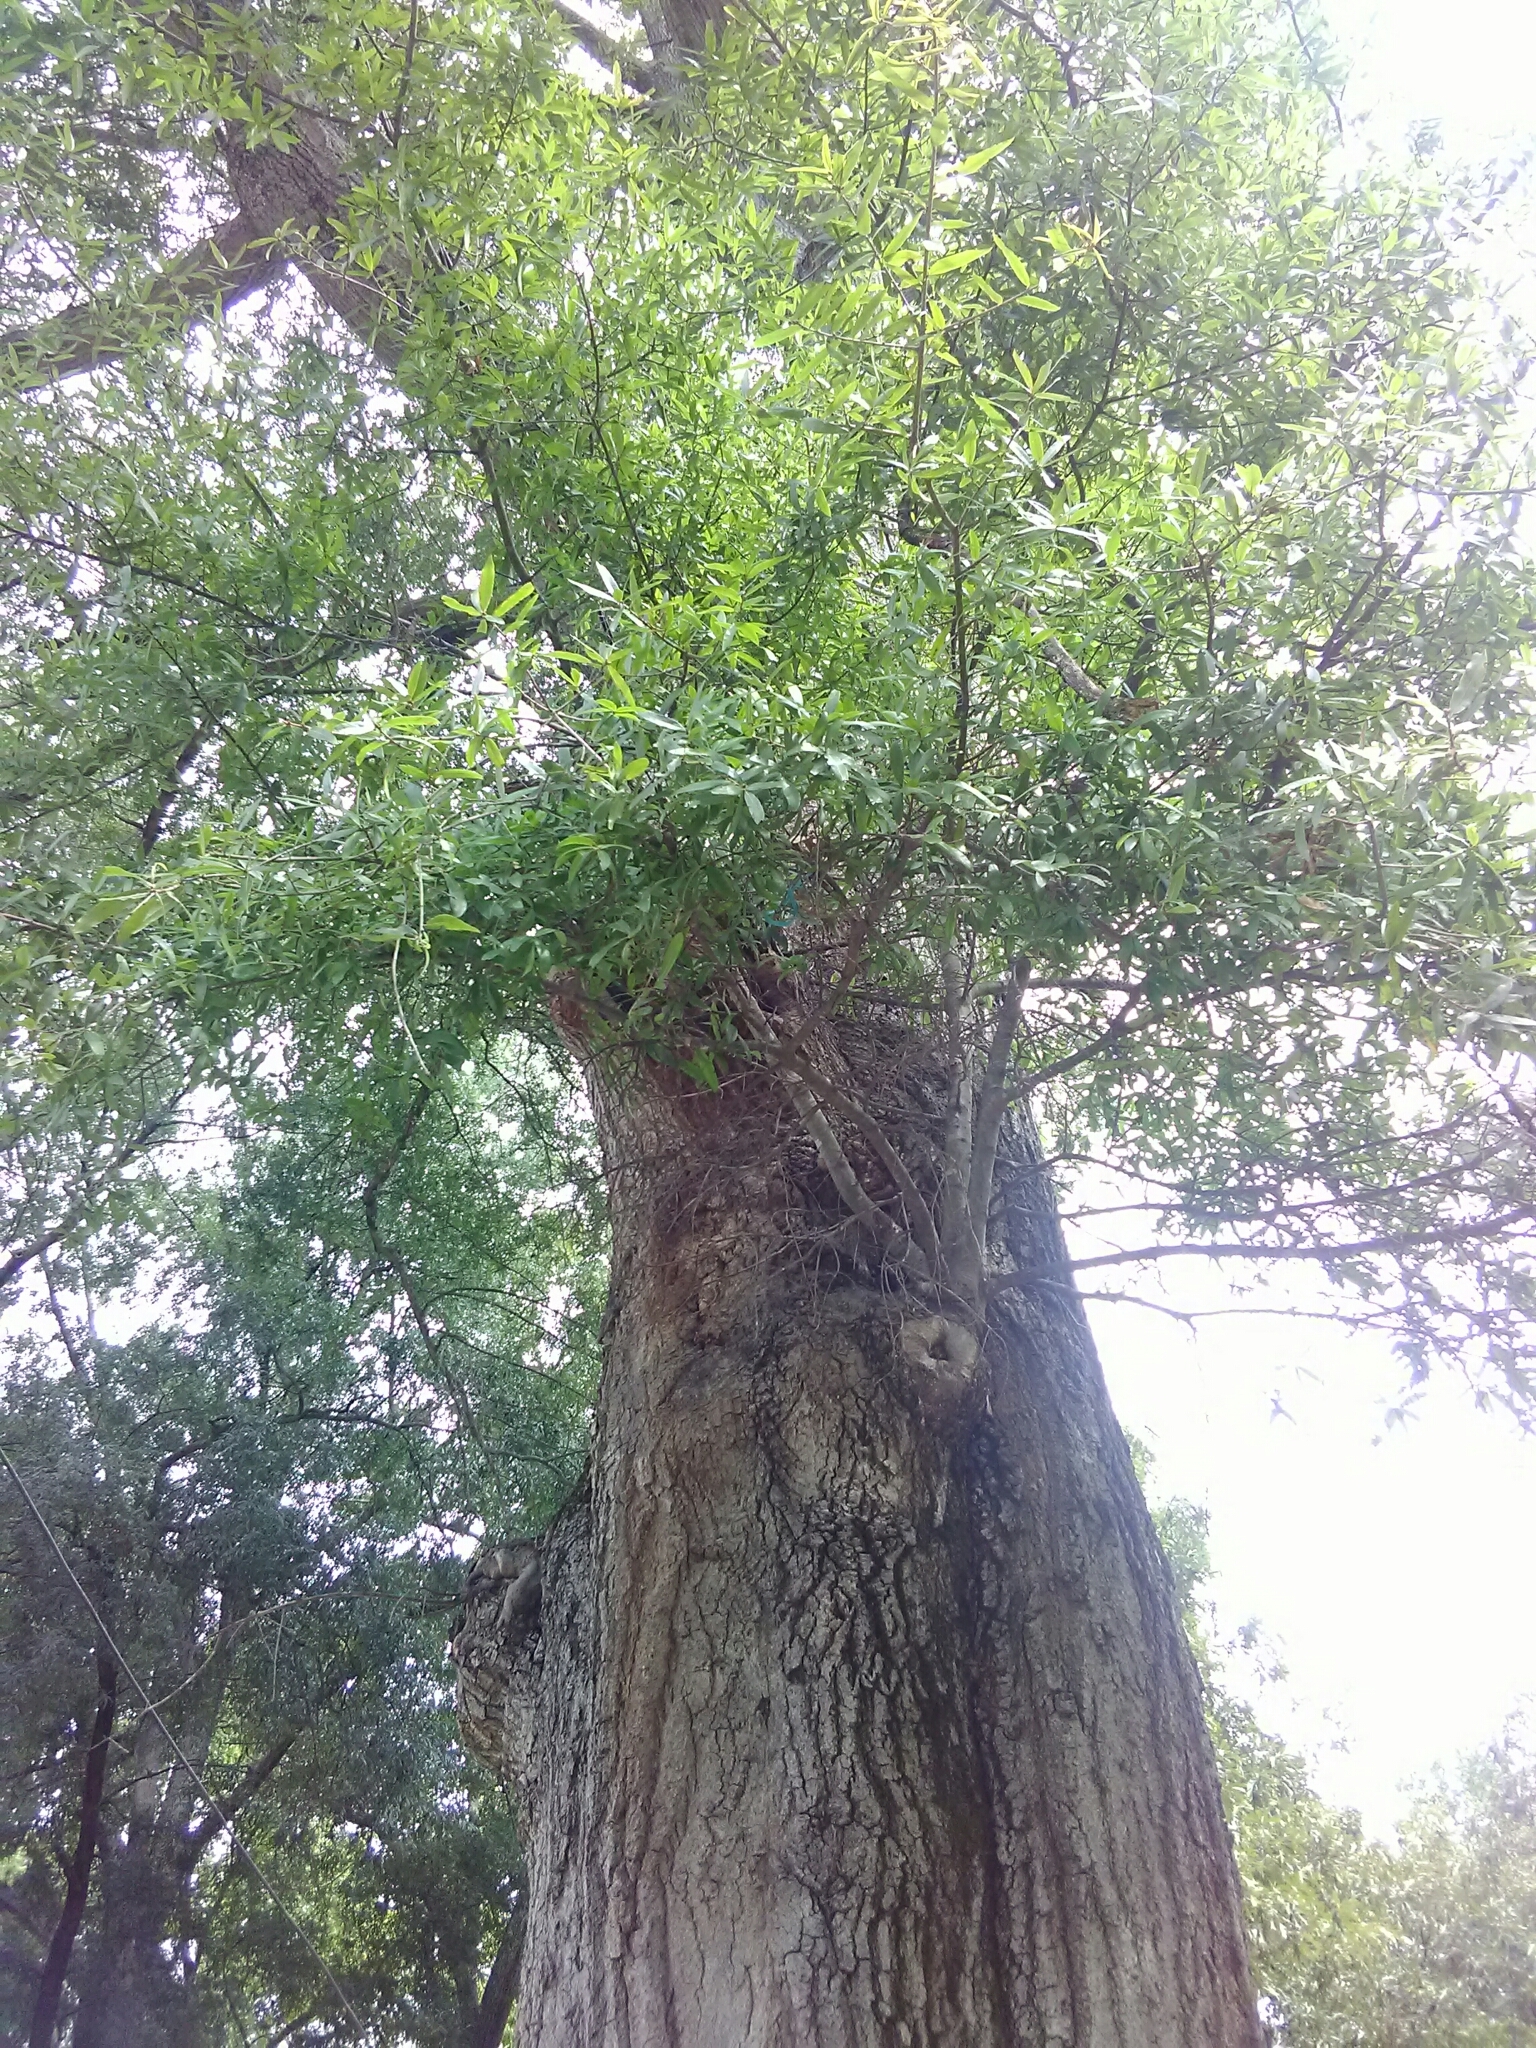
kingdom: Plantae
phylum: Tracheophyta
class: Magnoliopsida
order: Fagales
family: Fagaceae
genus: Quercus
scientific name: Quercus phellos
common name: Willow oak
